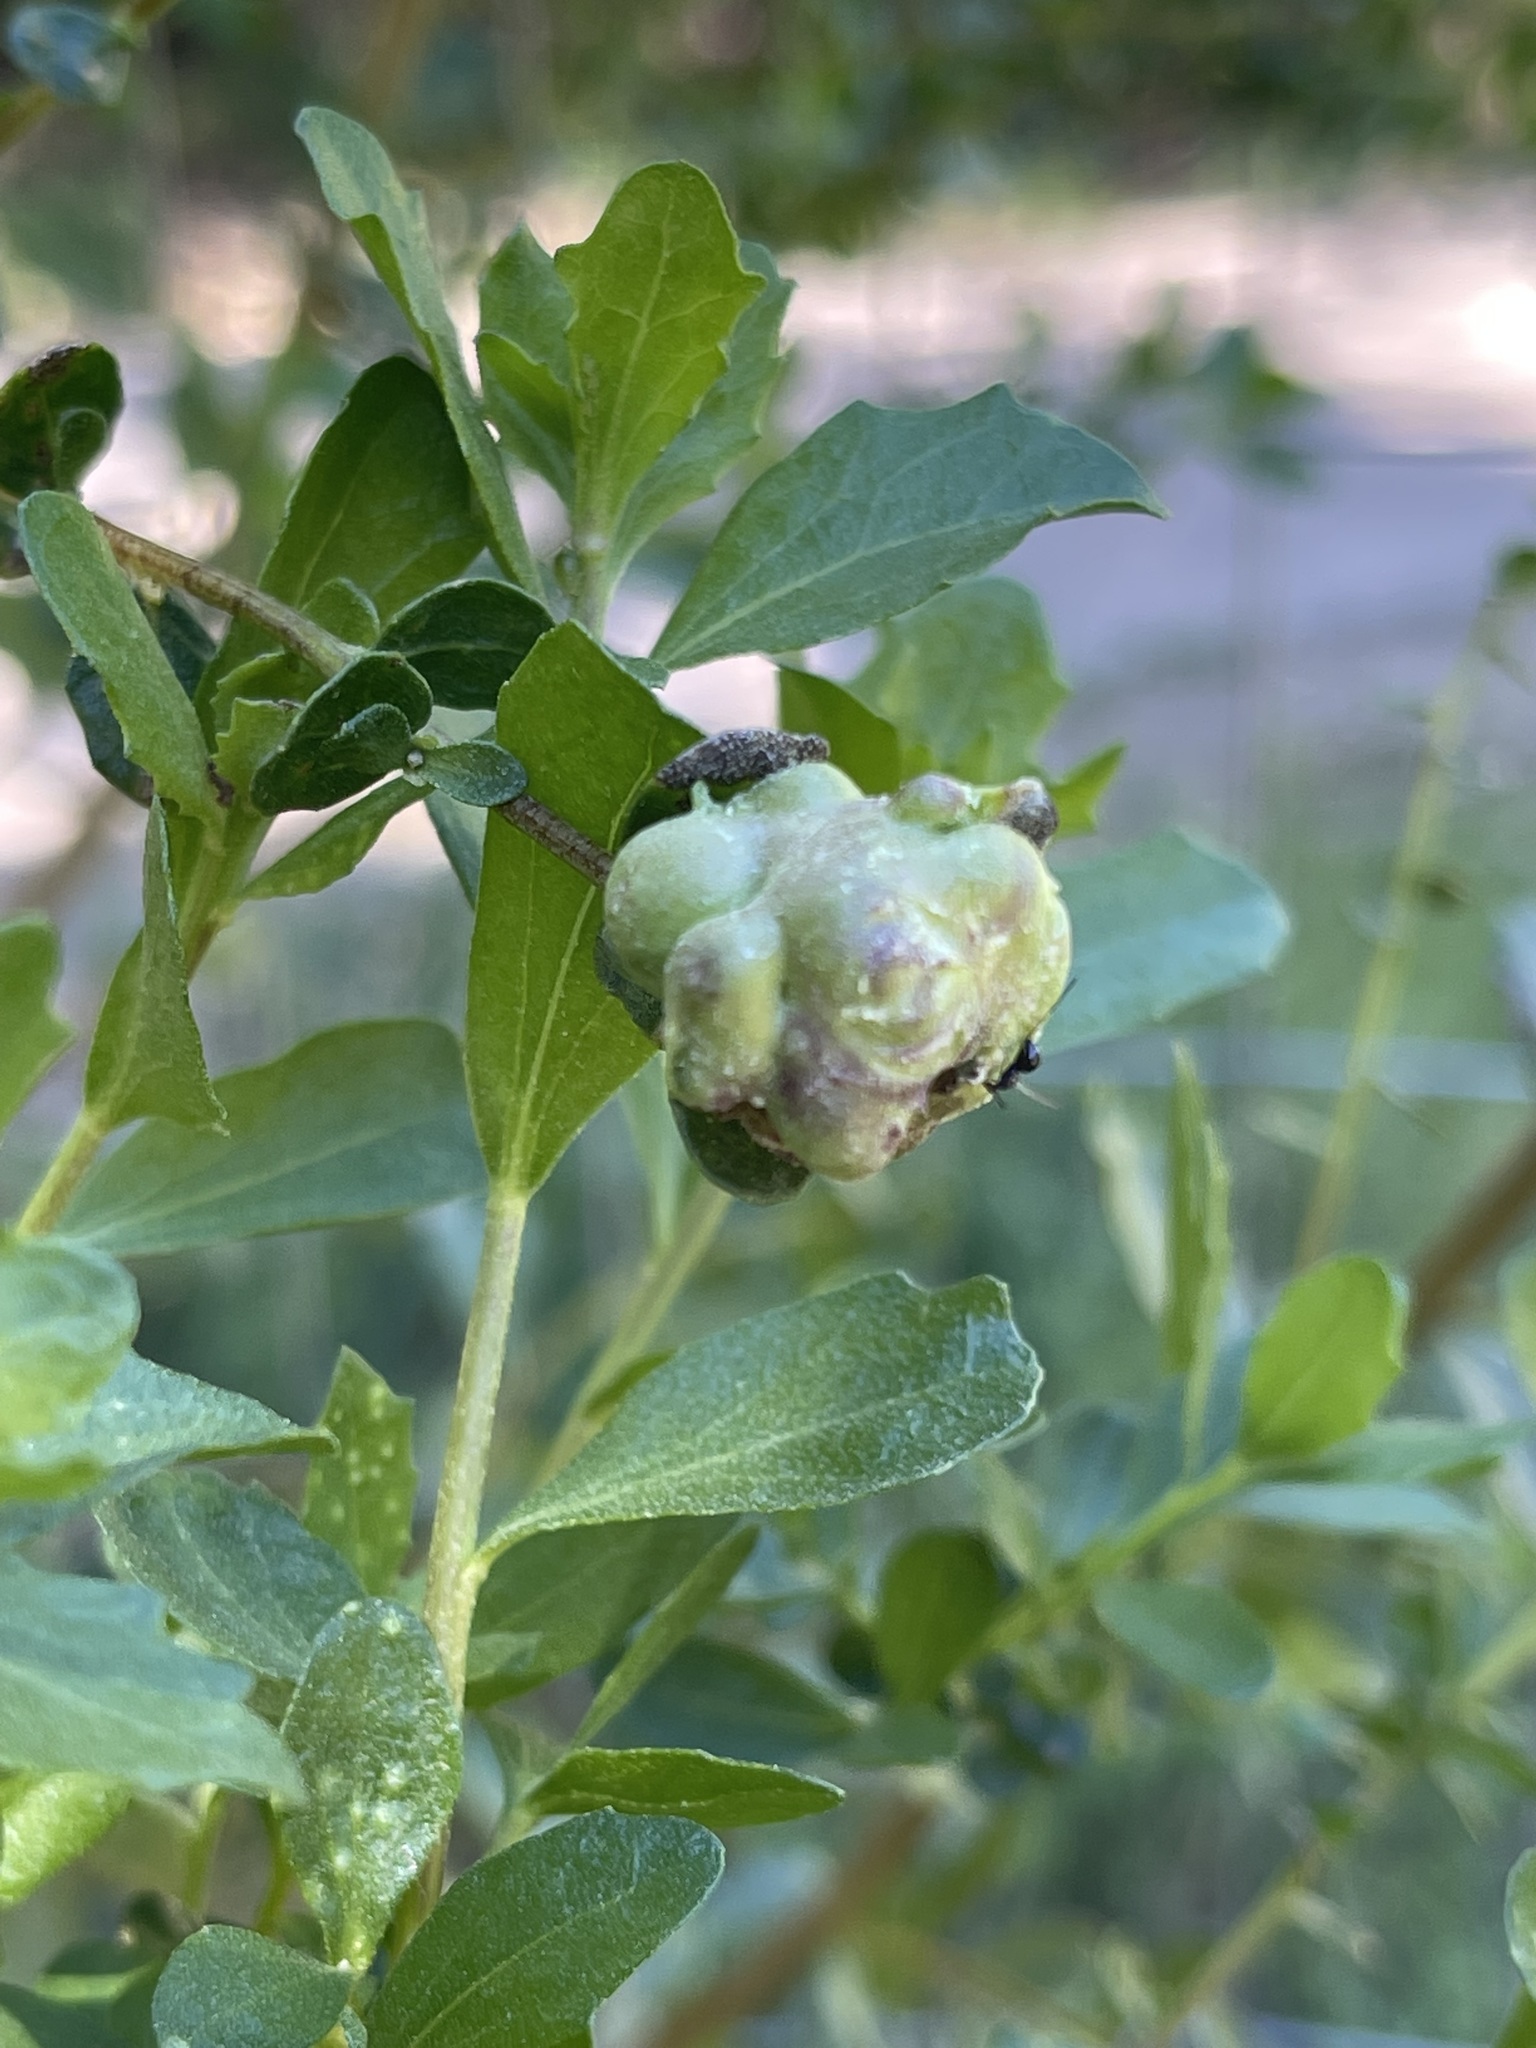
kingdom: Animalia
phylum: Arthropoda
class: Insecta
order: Diptera
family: Cecidomyiidae
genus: Rhopalomyia
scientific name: Rhopalomyia californica
